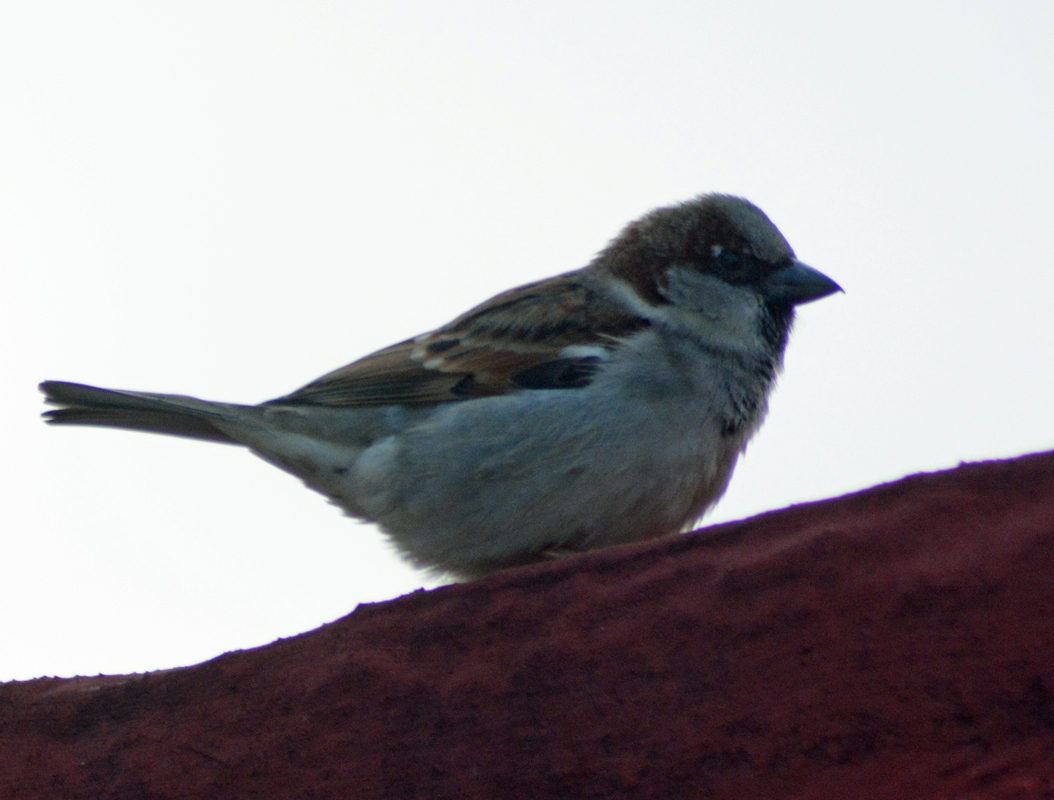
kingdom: Animalia
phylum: Chordata
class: Aves
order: Passeriformes
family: Passeridae
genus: Passer
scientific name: Passer domesticus
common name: House sparrow
